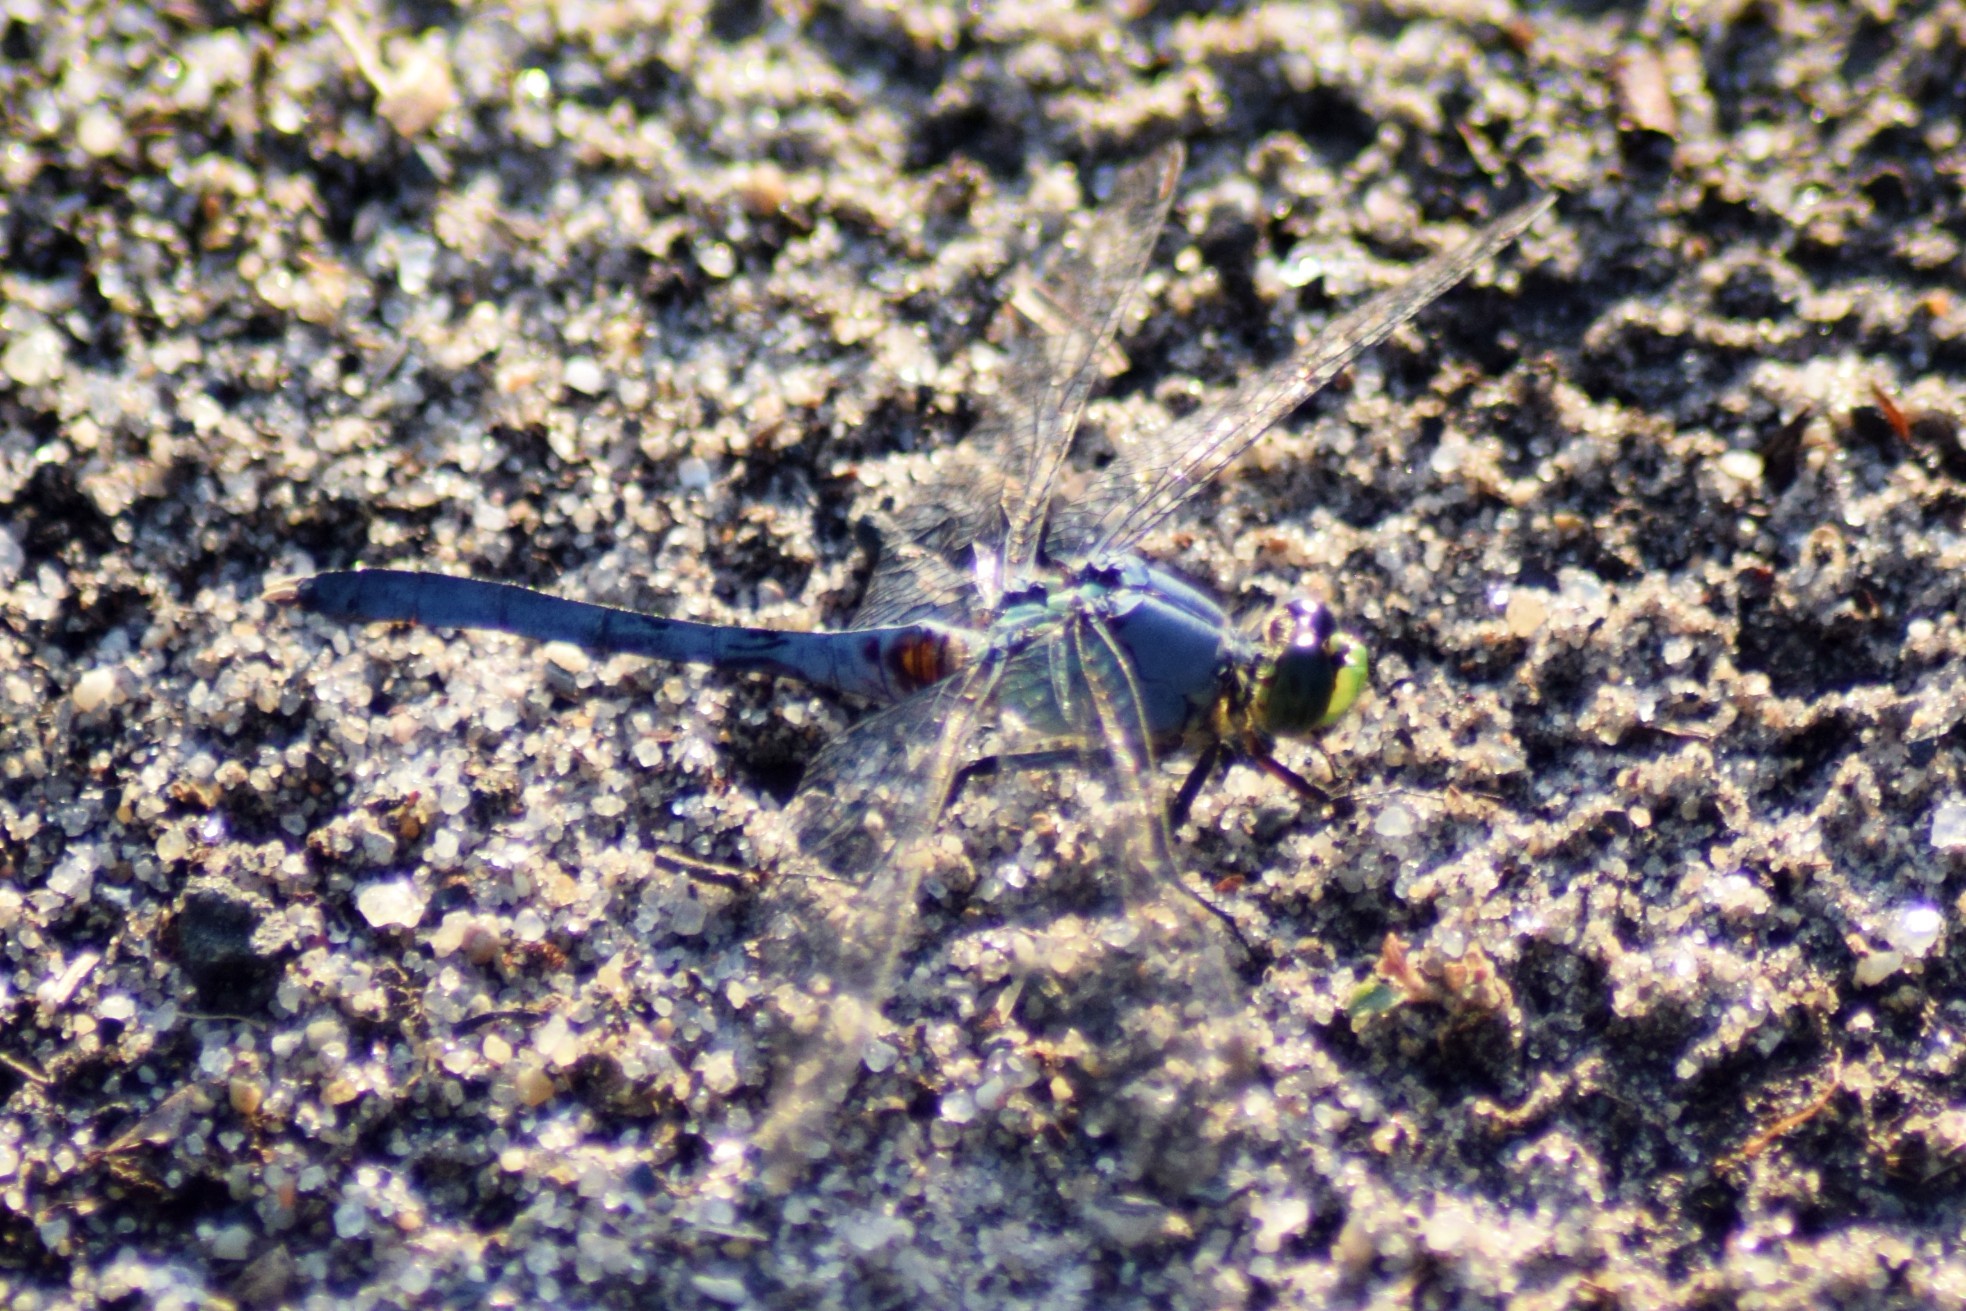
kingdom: Animalia
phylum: Arthropoda
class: Insecta
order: Odonata
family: Libellulidae
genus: Erythemis
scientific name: Erythemis simplicicollis
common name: Eastern pondhawk
